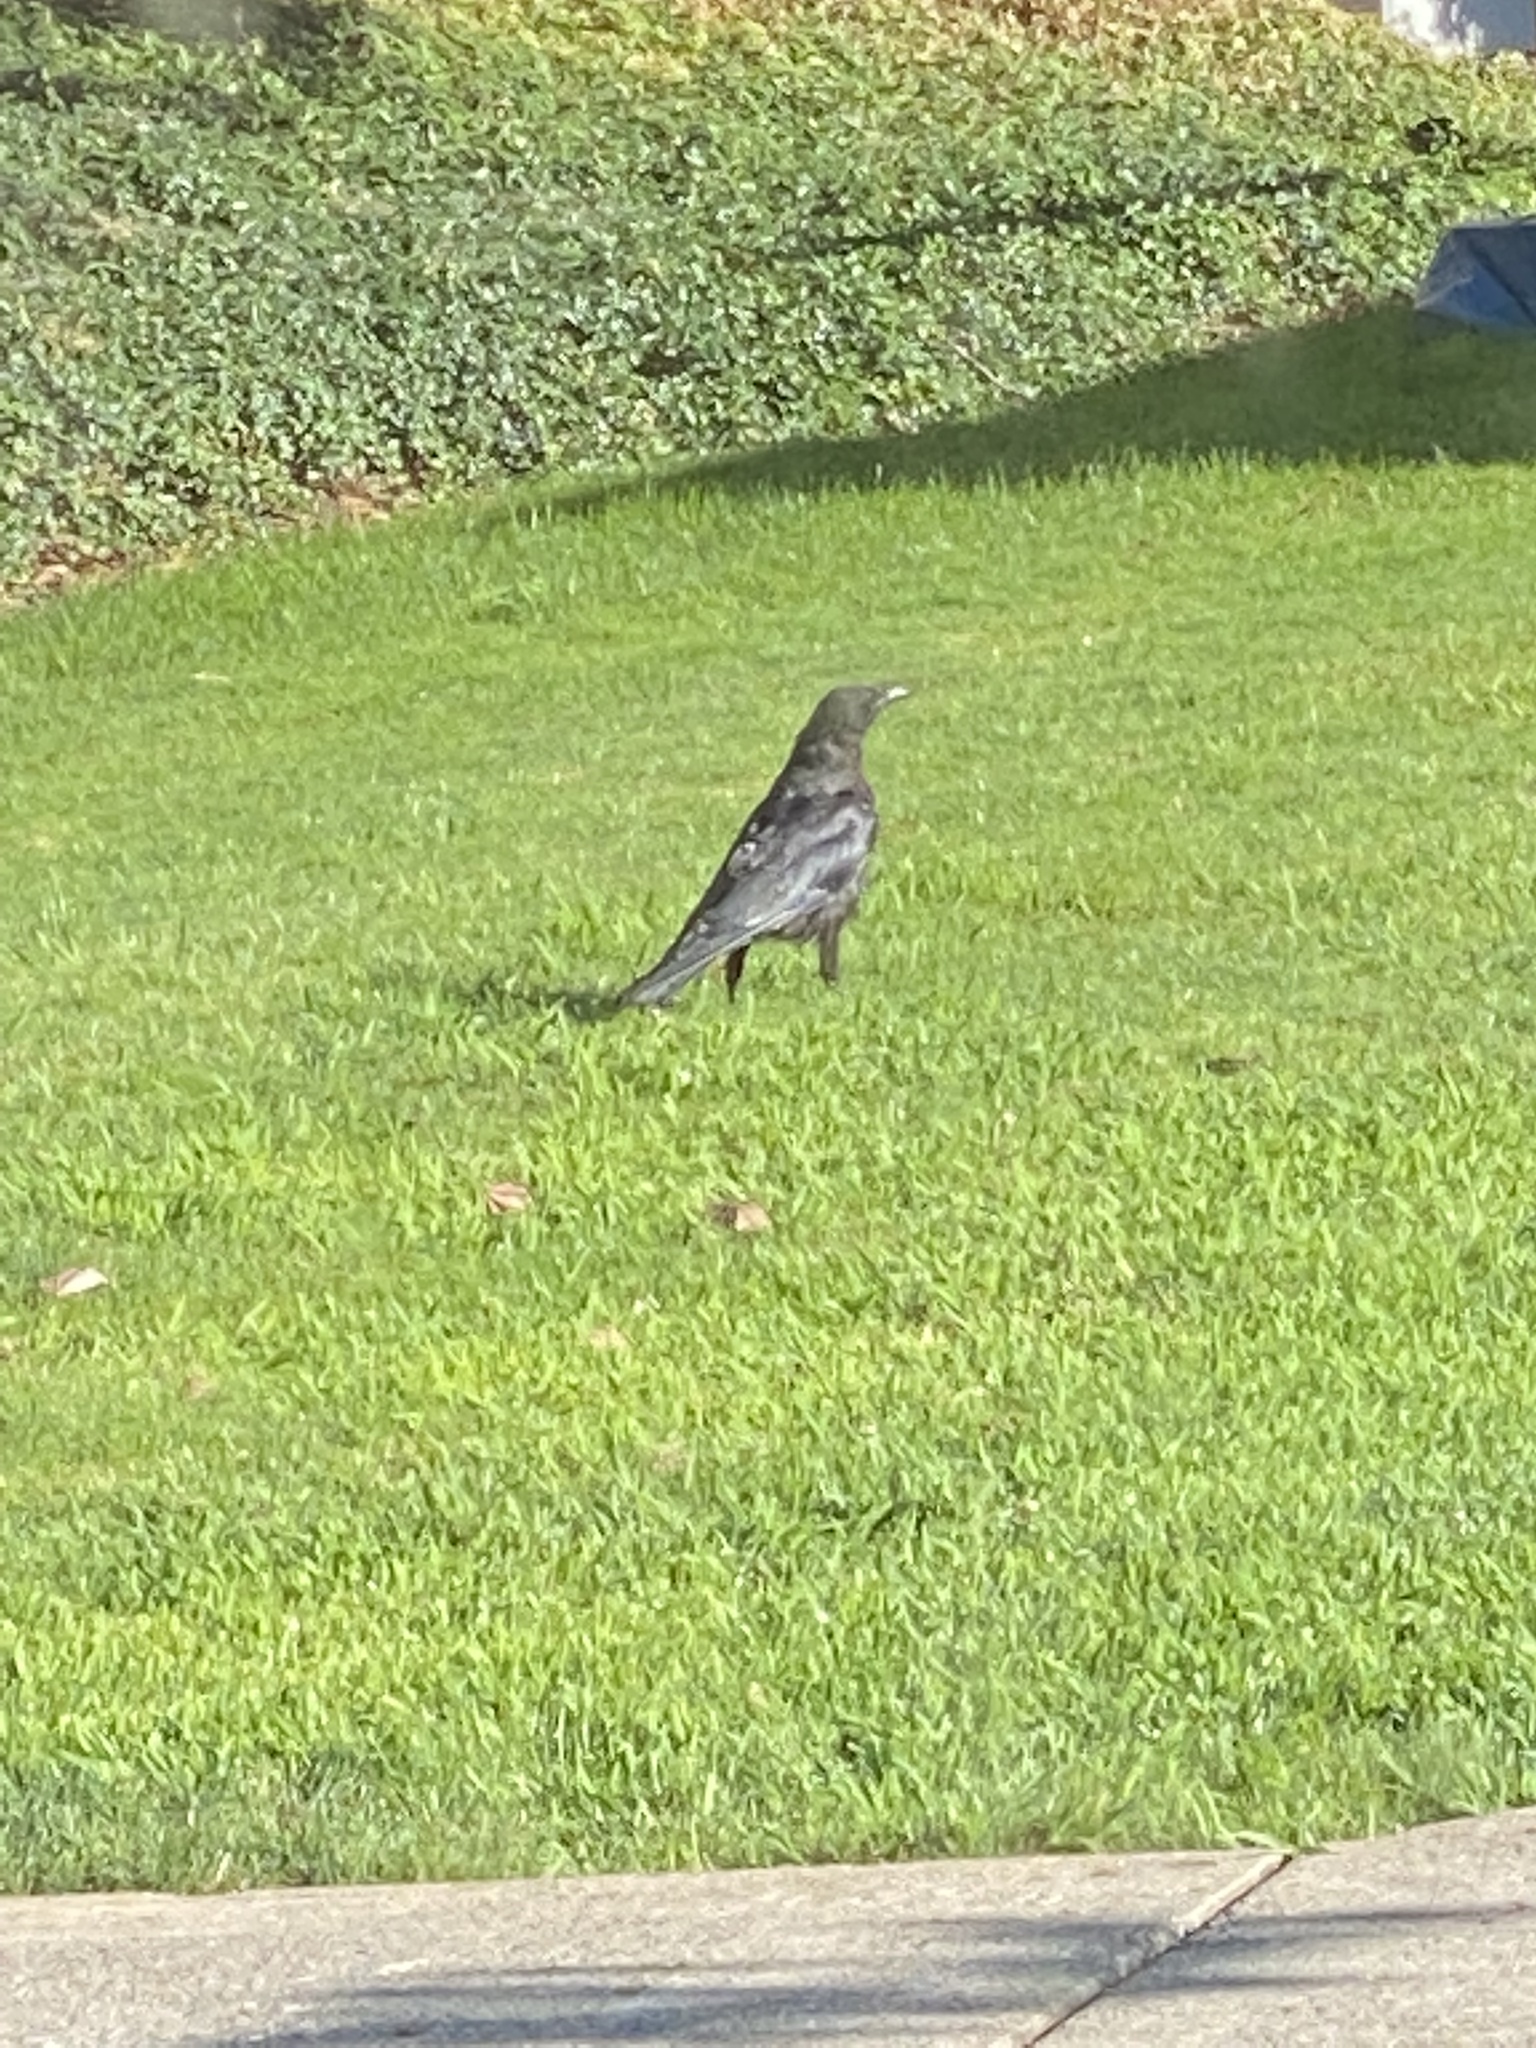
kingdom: Animalia
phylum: Chordata
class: Aves
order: Passeriformes
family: Corvidae
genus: Corvus
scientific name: Corvus brachyrhynchos
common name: American crow
